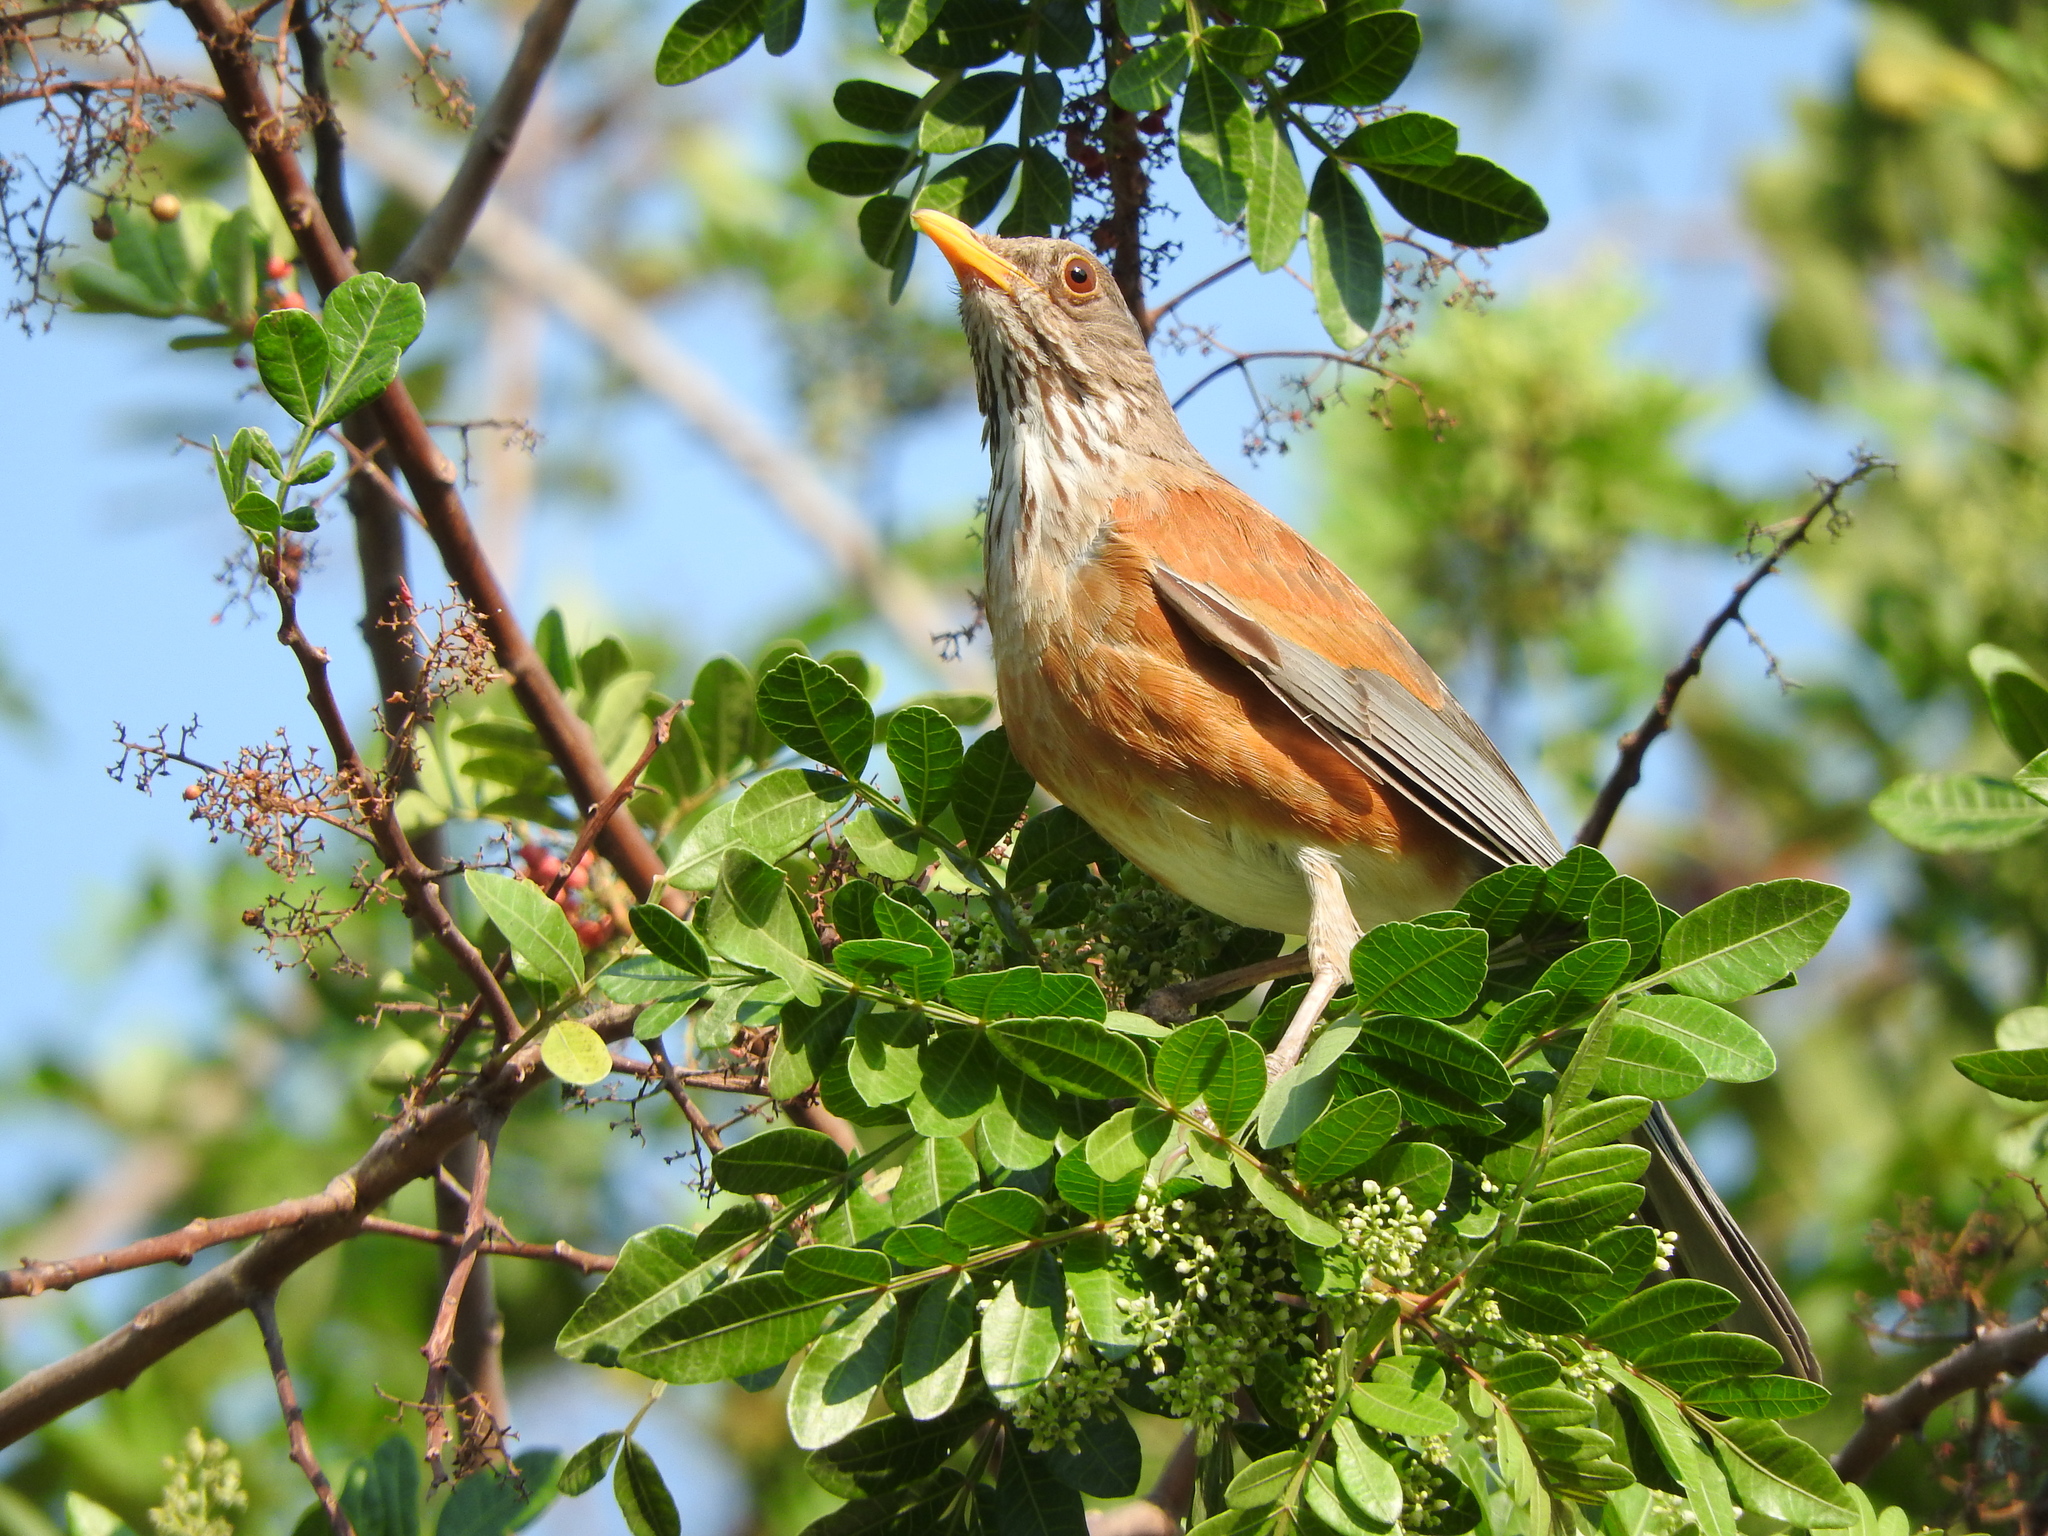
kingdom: Animalia
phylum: Chordata
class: Aves
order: Passeriformes
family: Turdidae
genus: Turdus
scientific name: Turdus rufopalliatus
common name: Rufous-backed robin
